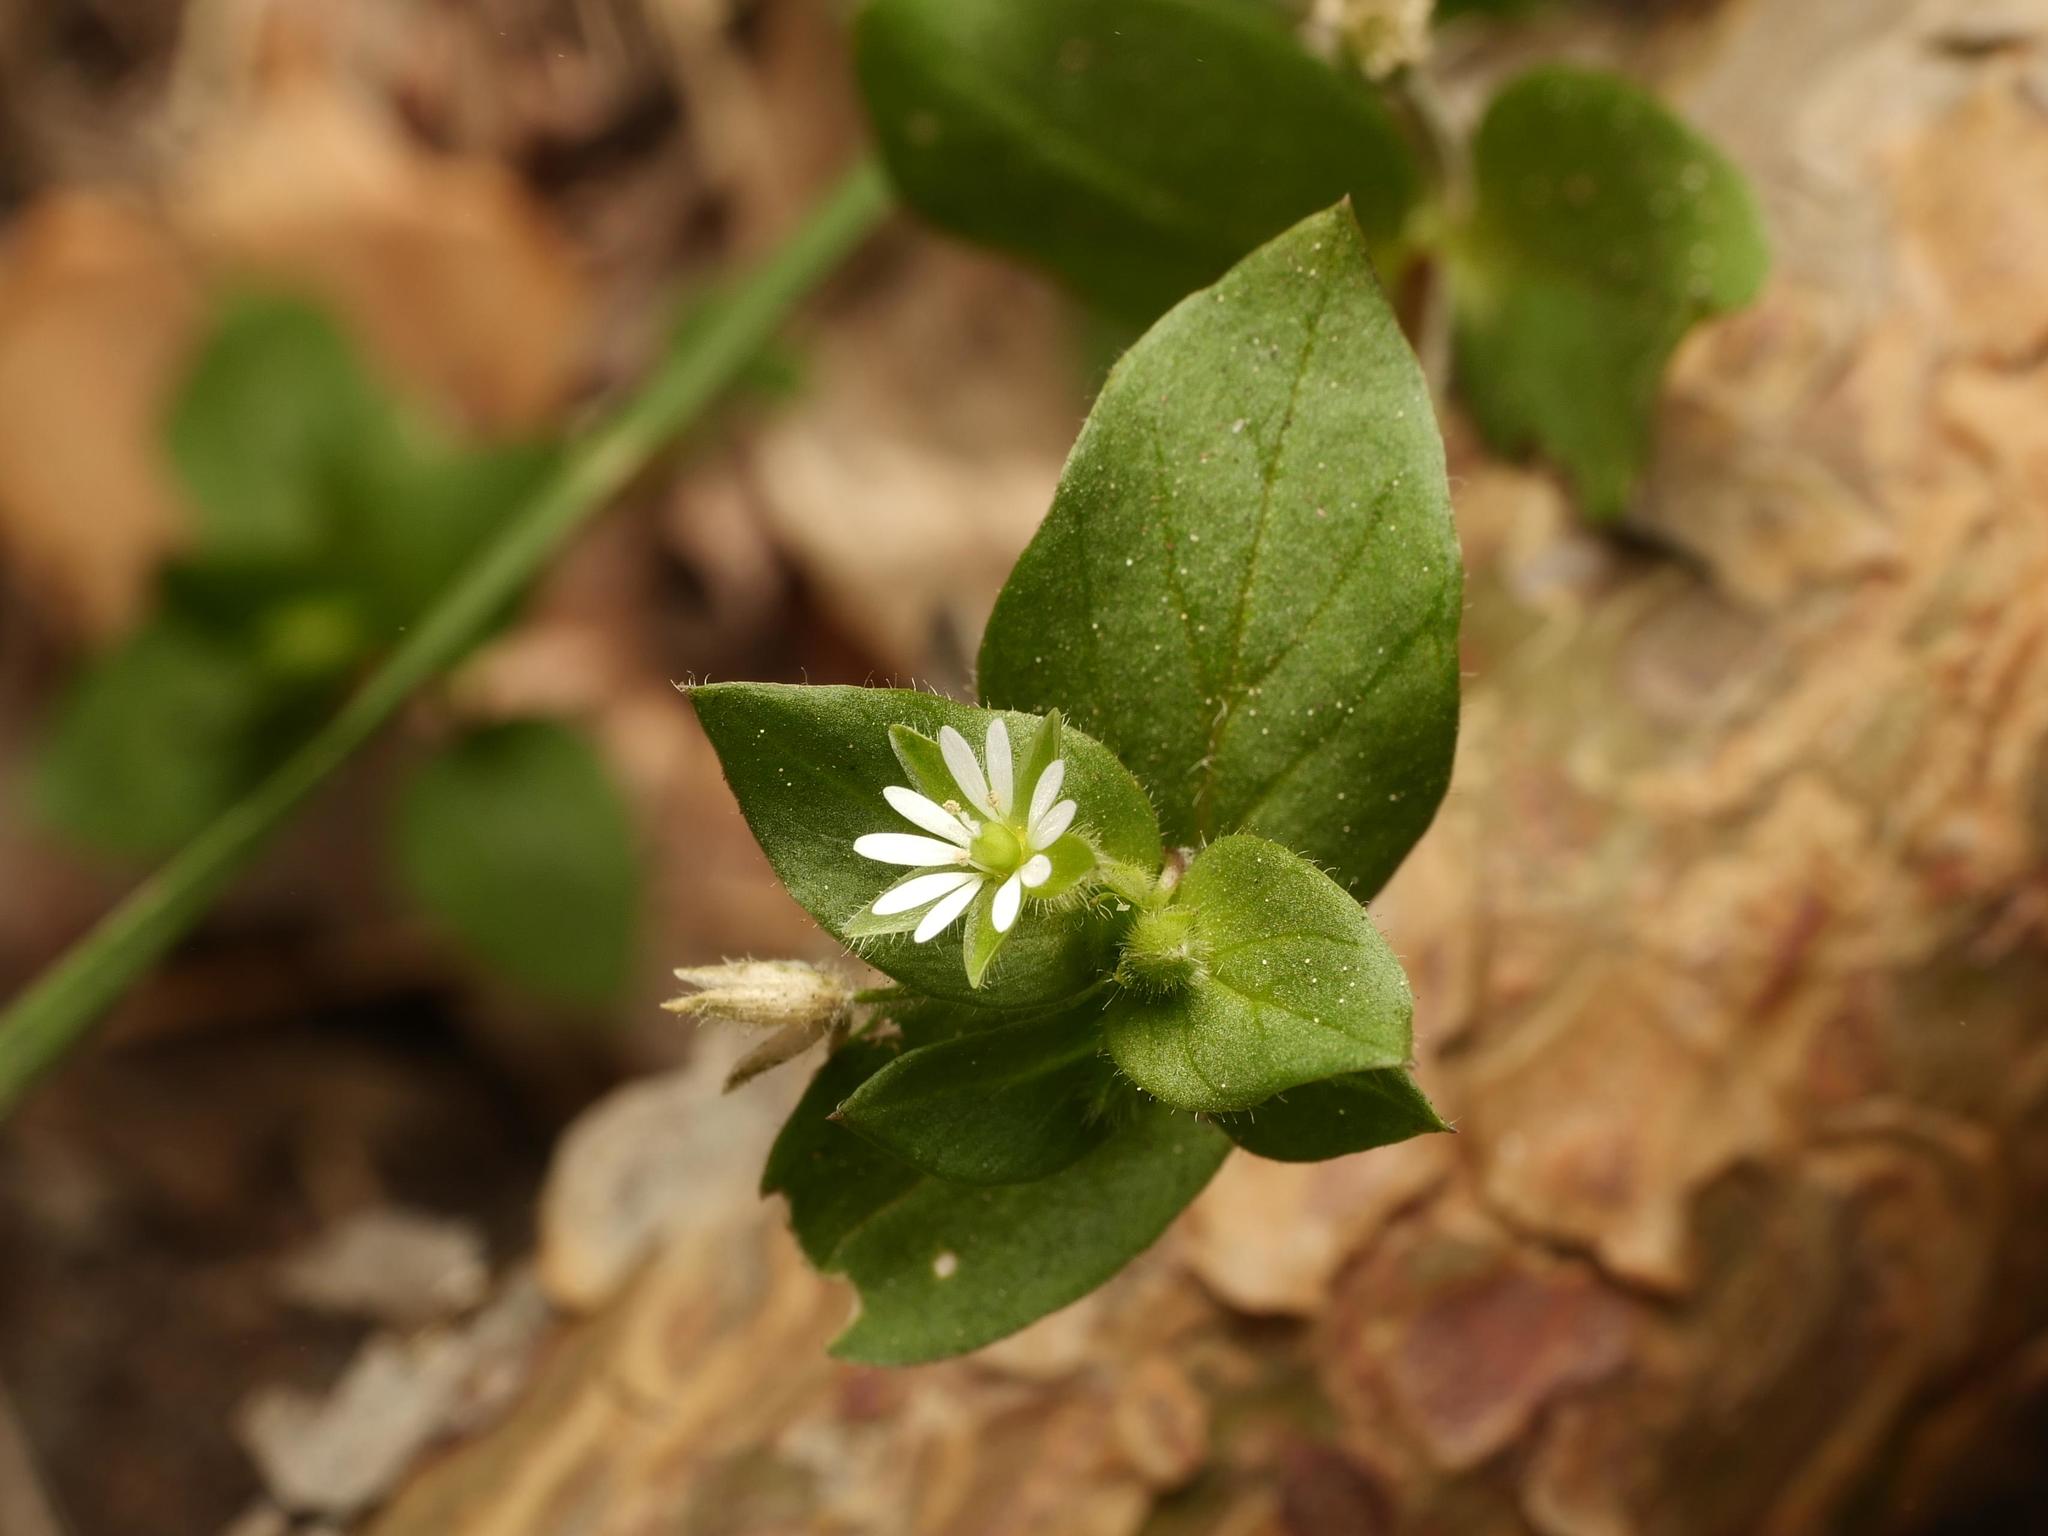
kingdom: Plantae
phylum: Tracheophyta
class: Magnoliopsida
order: Caryophyllales
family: Caryophyllaceae
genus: Stellaria
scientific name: Stellaria media
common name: Common chickweed
